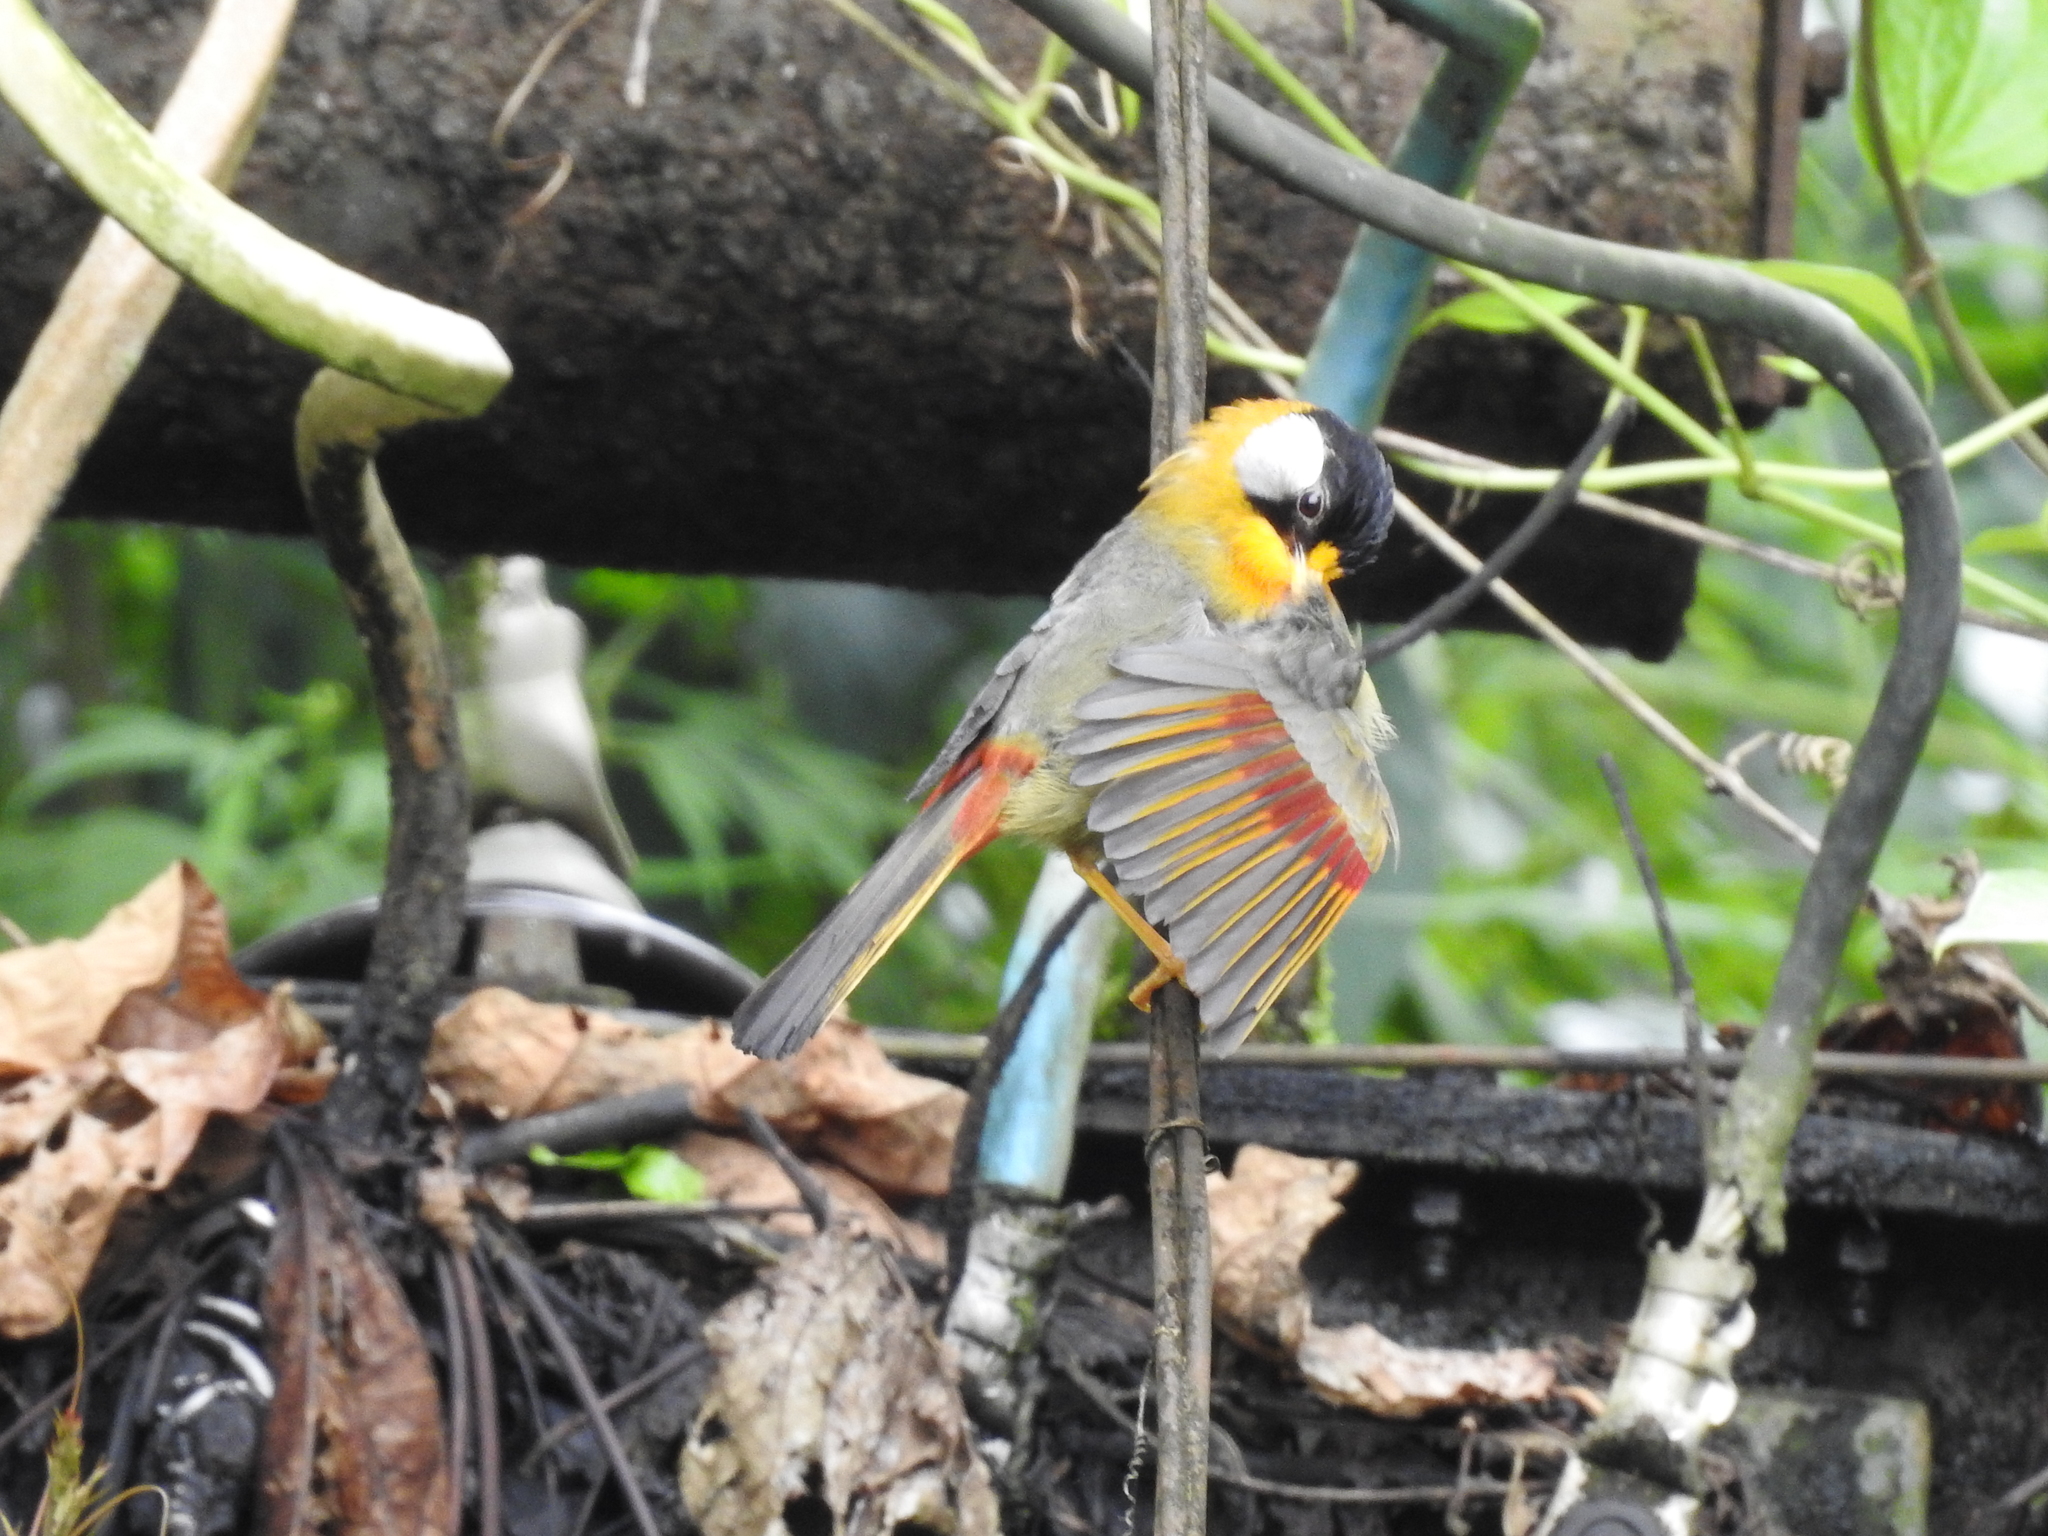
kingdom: Animalia
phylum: Chordata
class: Aves
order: Passeriformes
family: Leiothrichidae
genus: Leiothrix
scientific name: Leiothrix argentauris
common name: Silver-eared mesia
